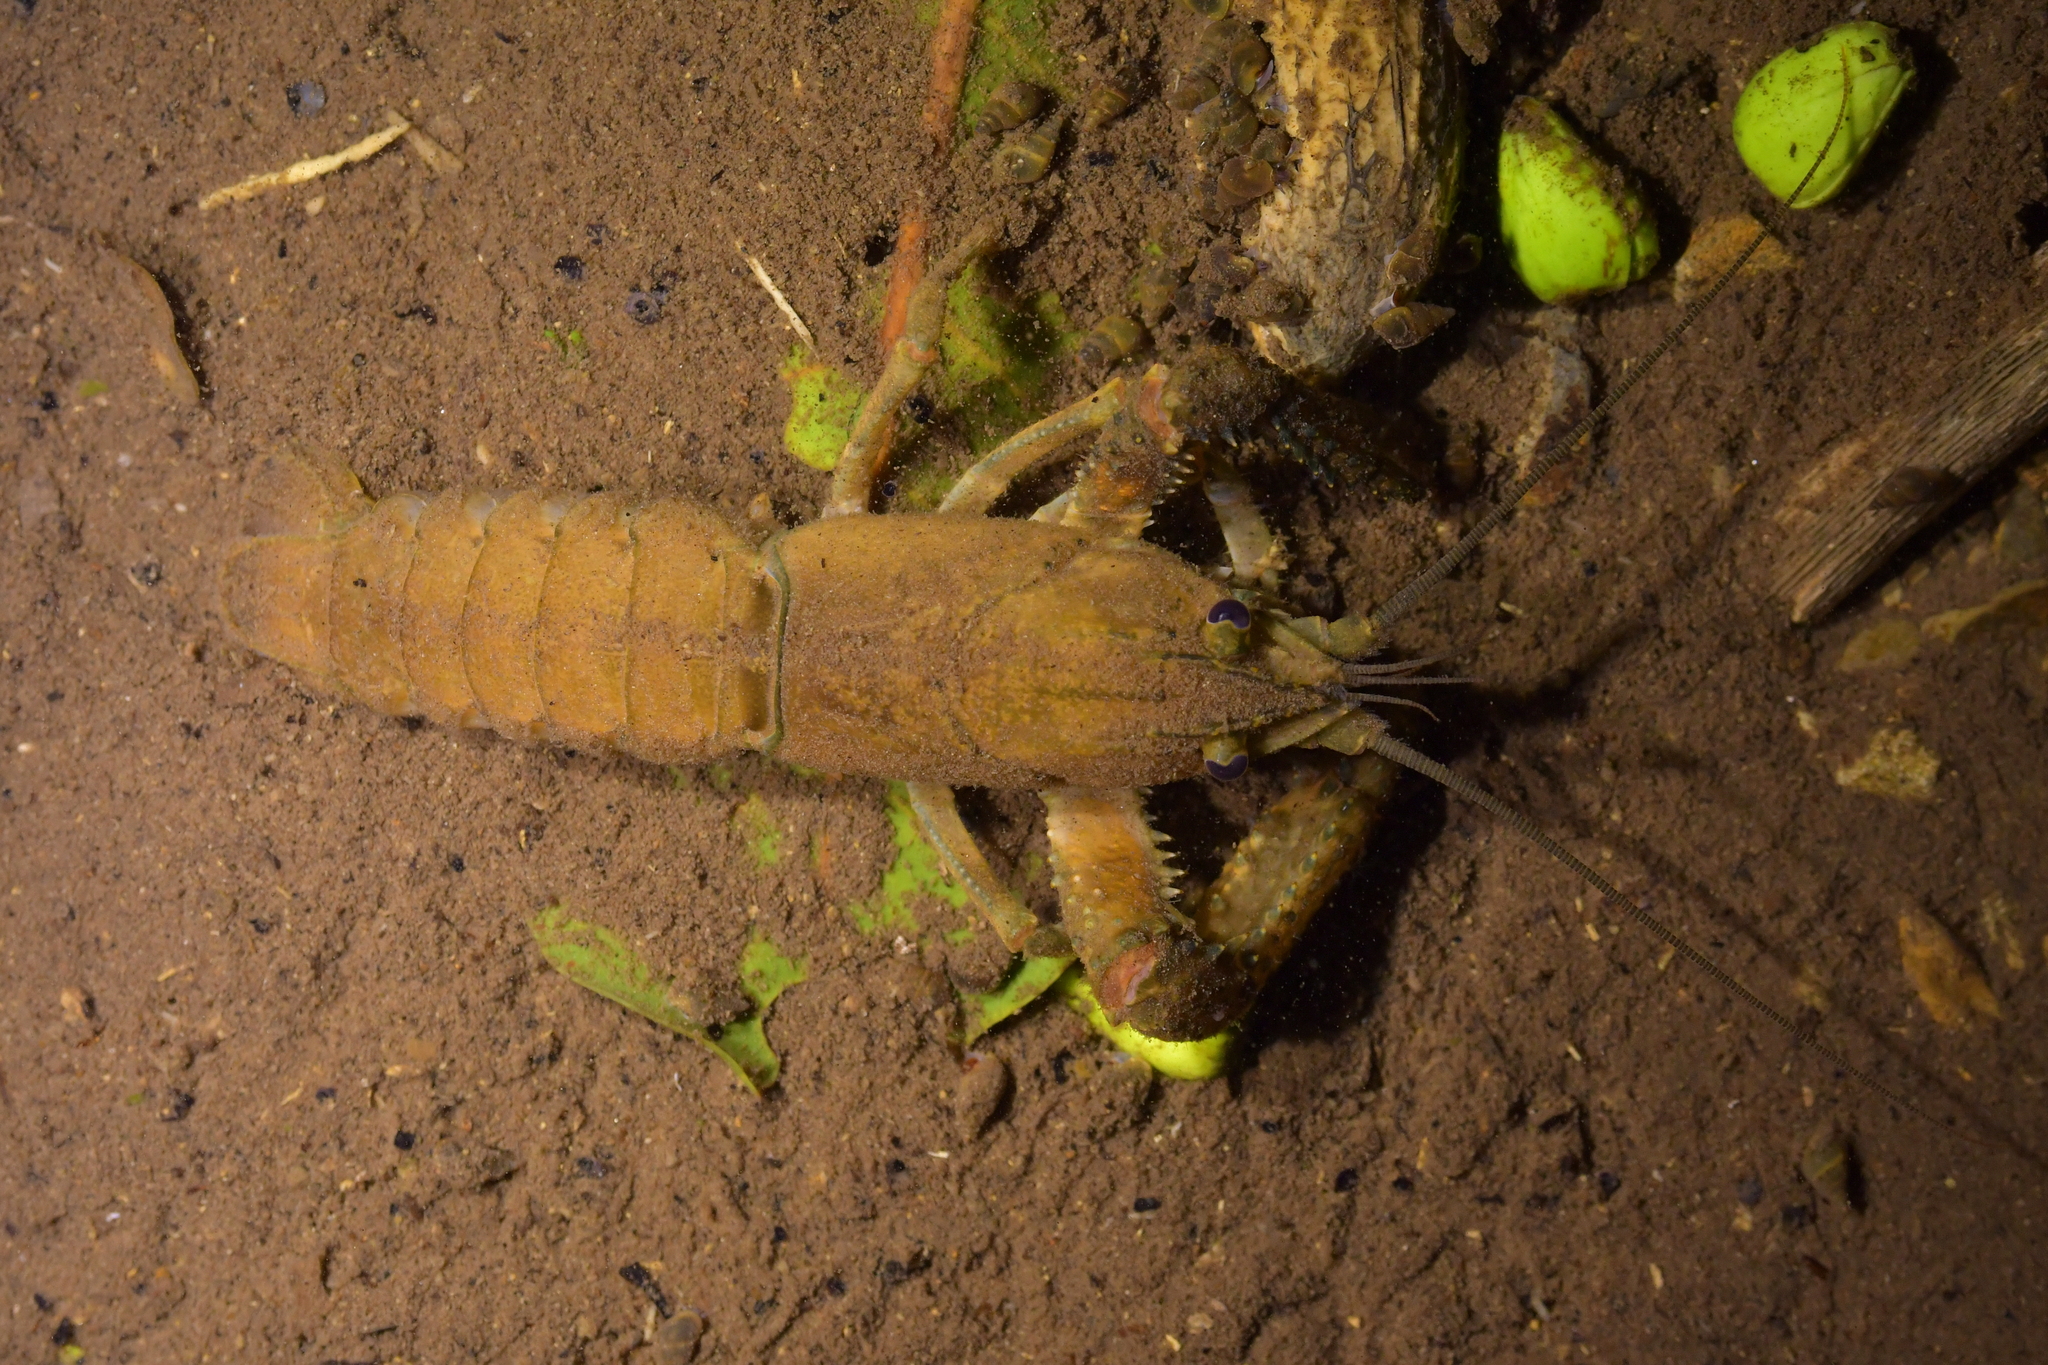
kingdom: Animalia
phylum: Arthropoda
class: Malacostraca
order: Decapoda
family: Parastacidae
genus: Paranephrops
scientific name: Paranephrops planifrons
